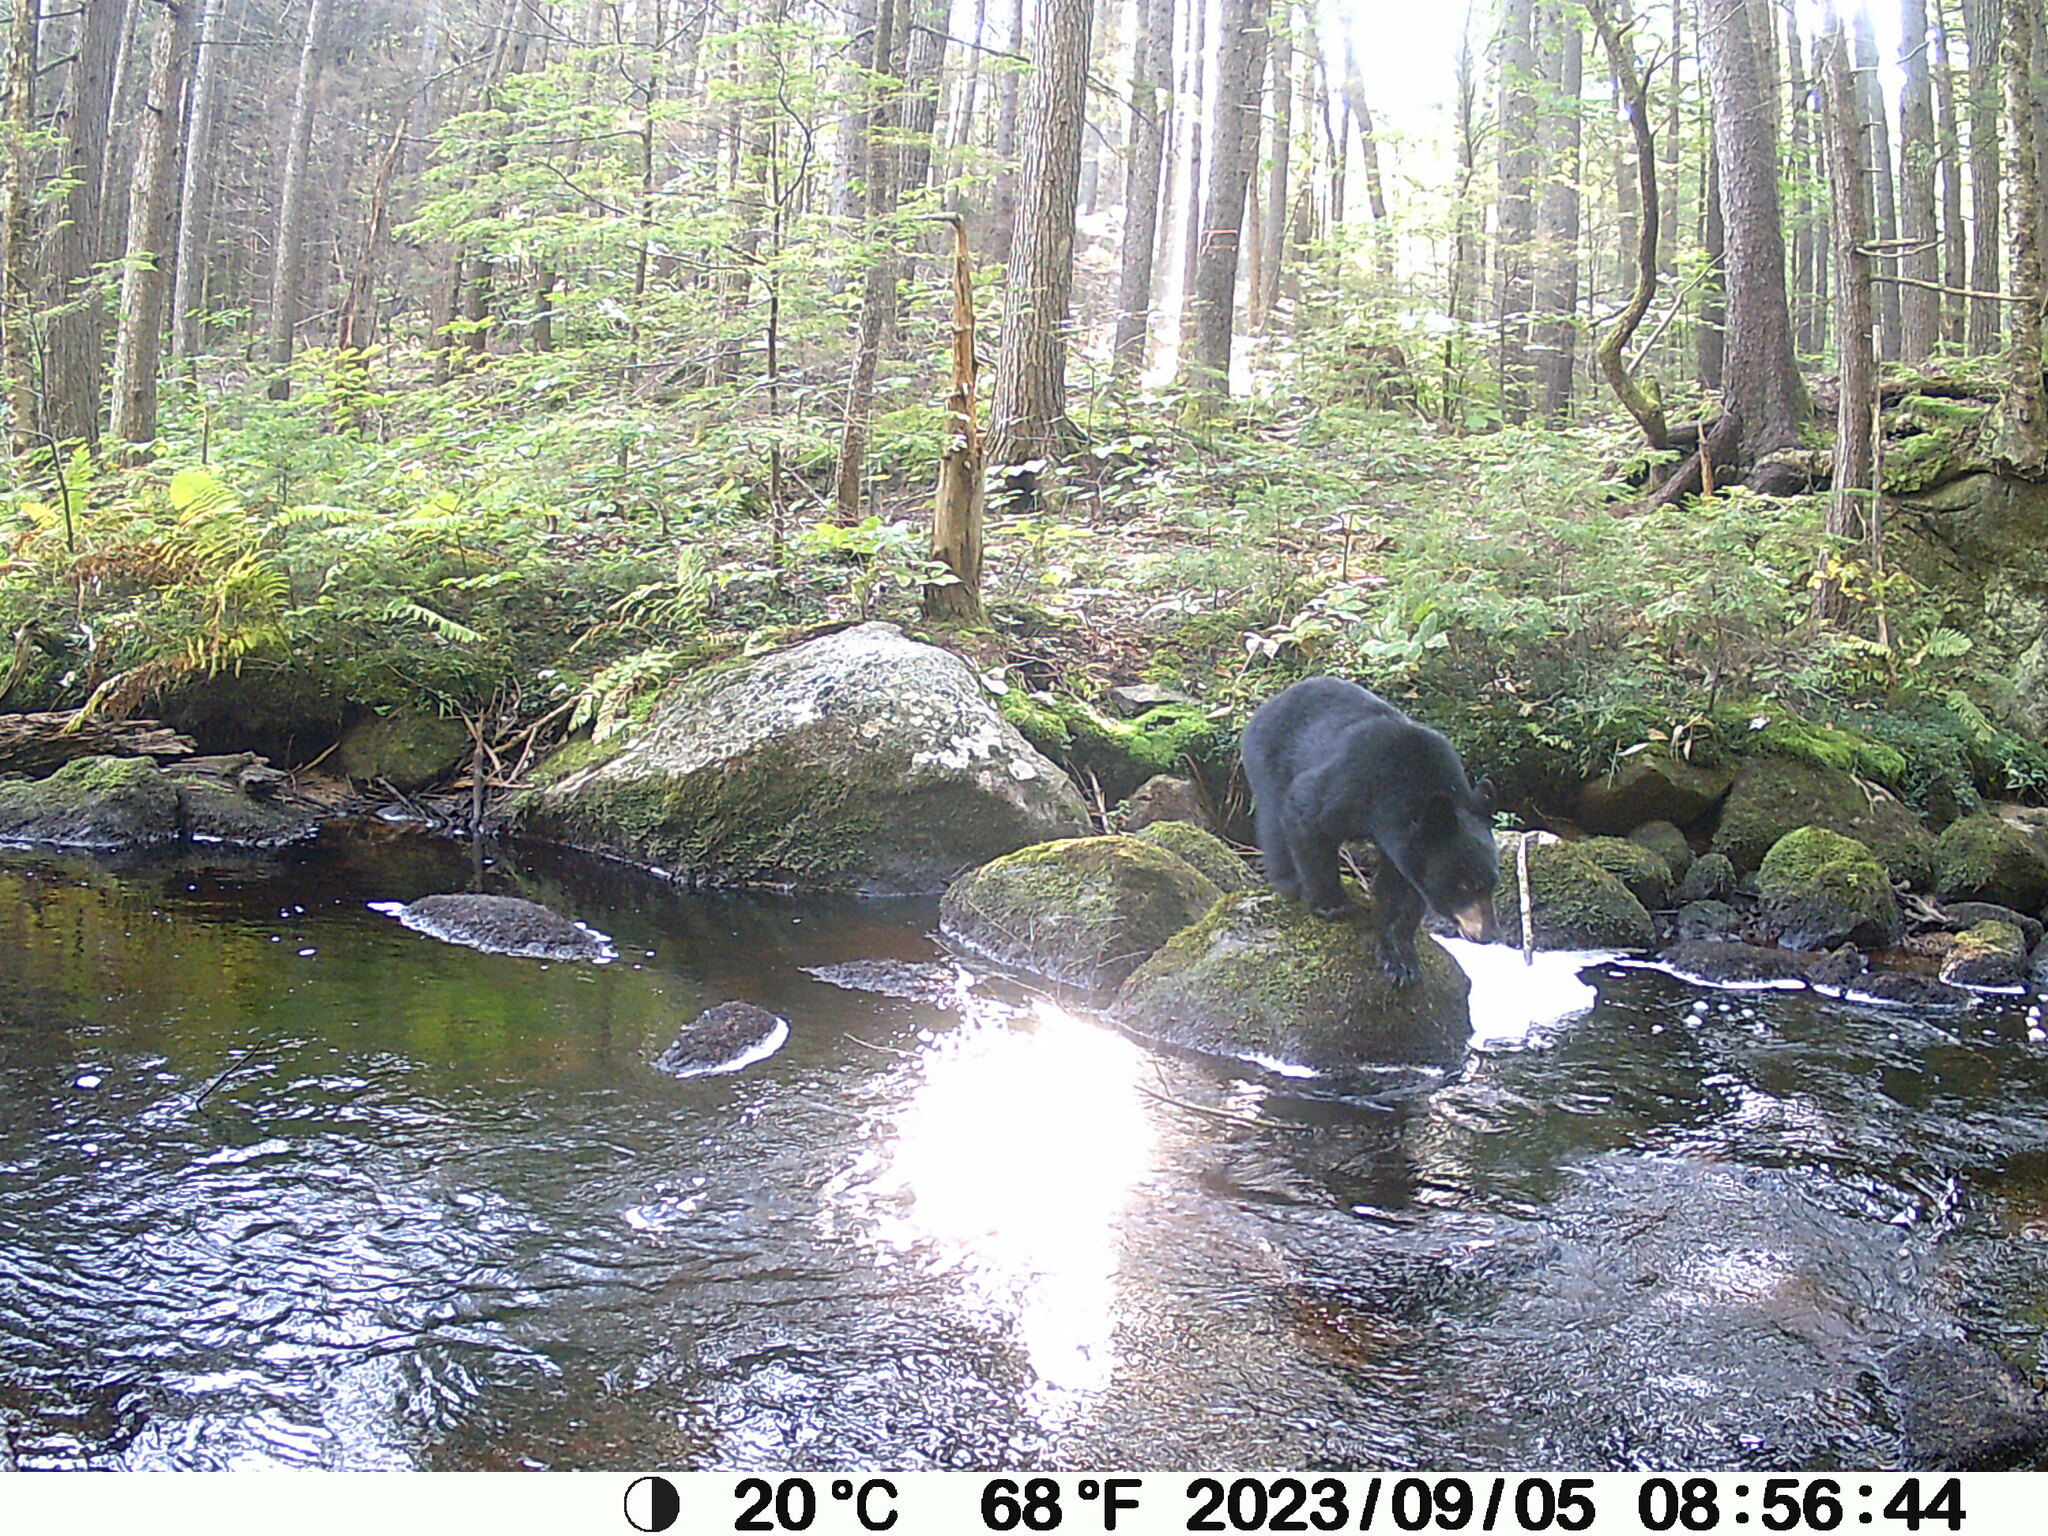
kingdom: Animalia
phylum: Chordata
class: Mammalia
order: Carnivora
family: Ursidae
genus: Ursus
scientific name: Ursus americanus
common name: American black bear
